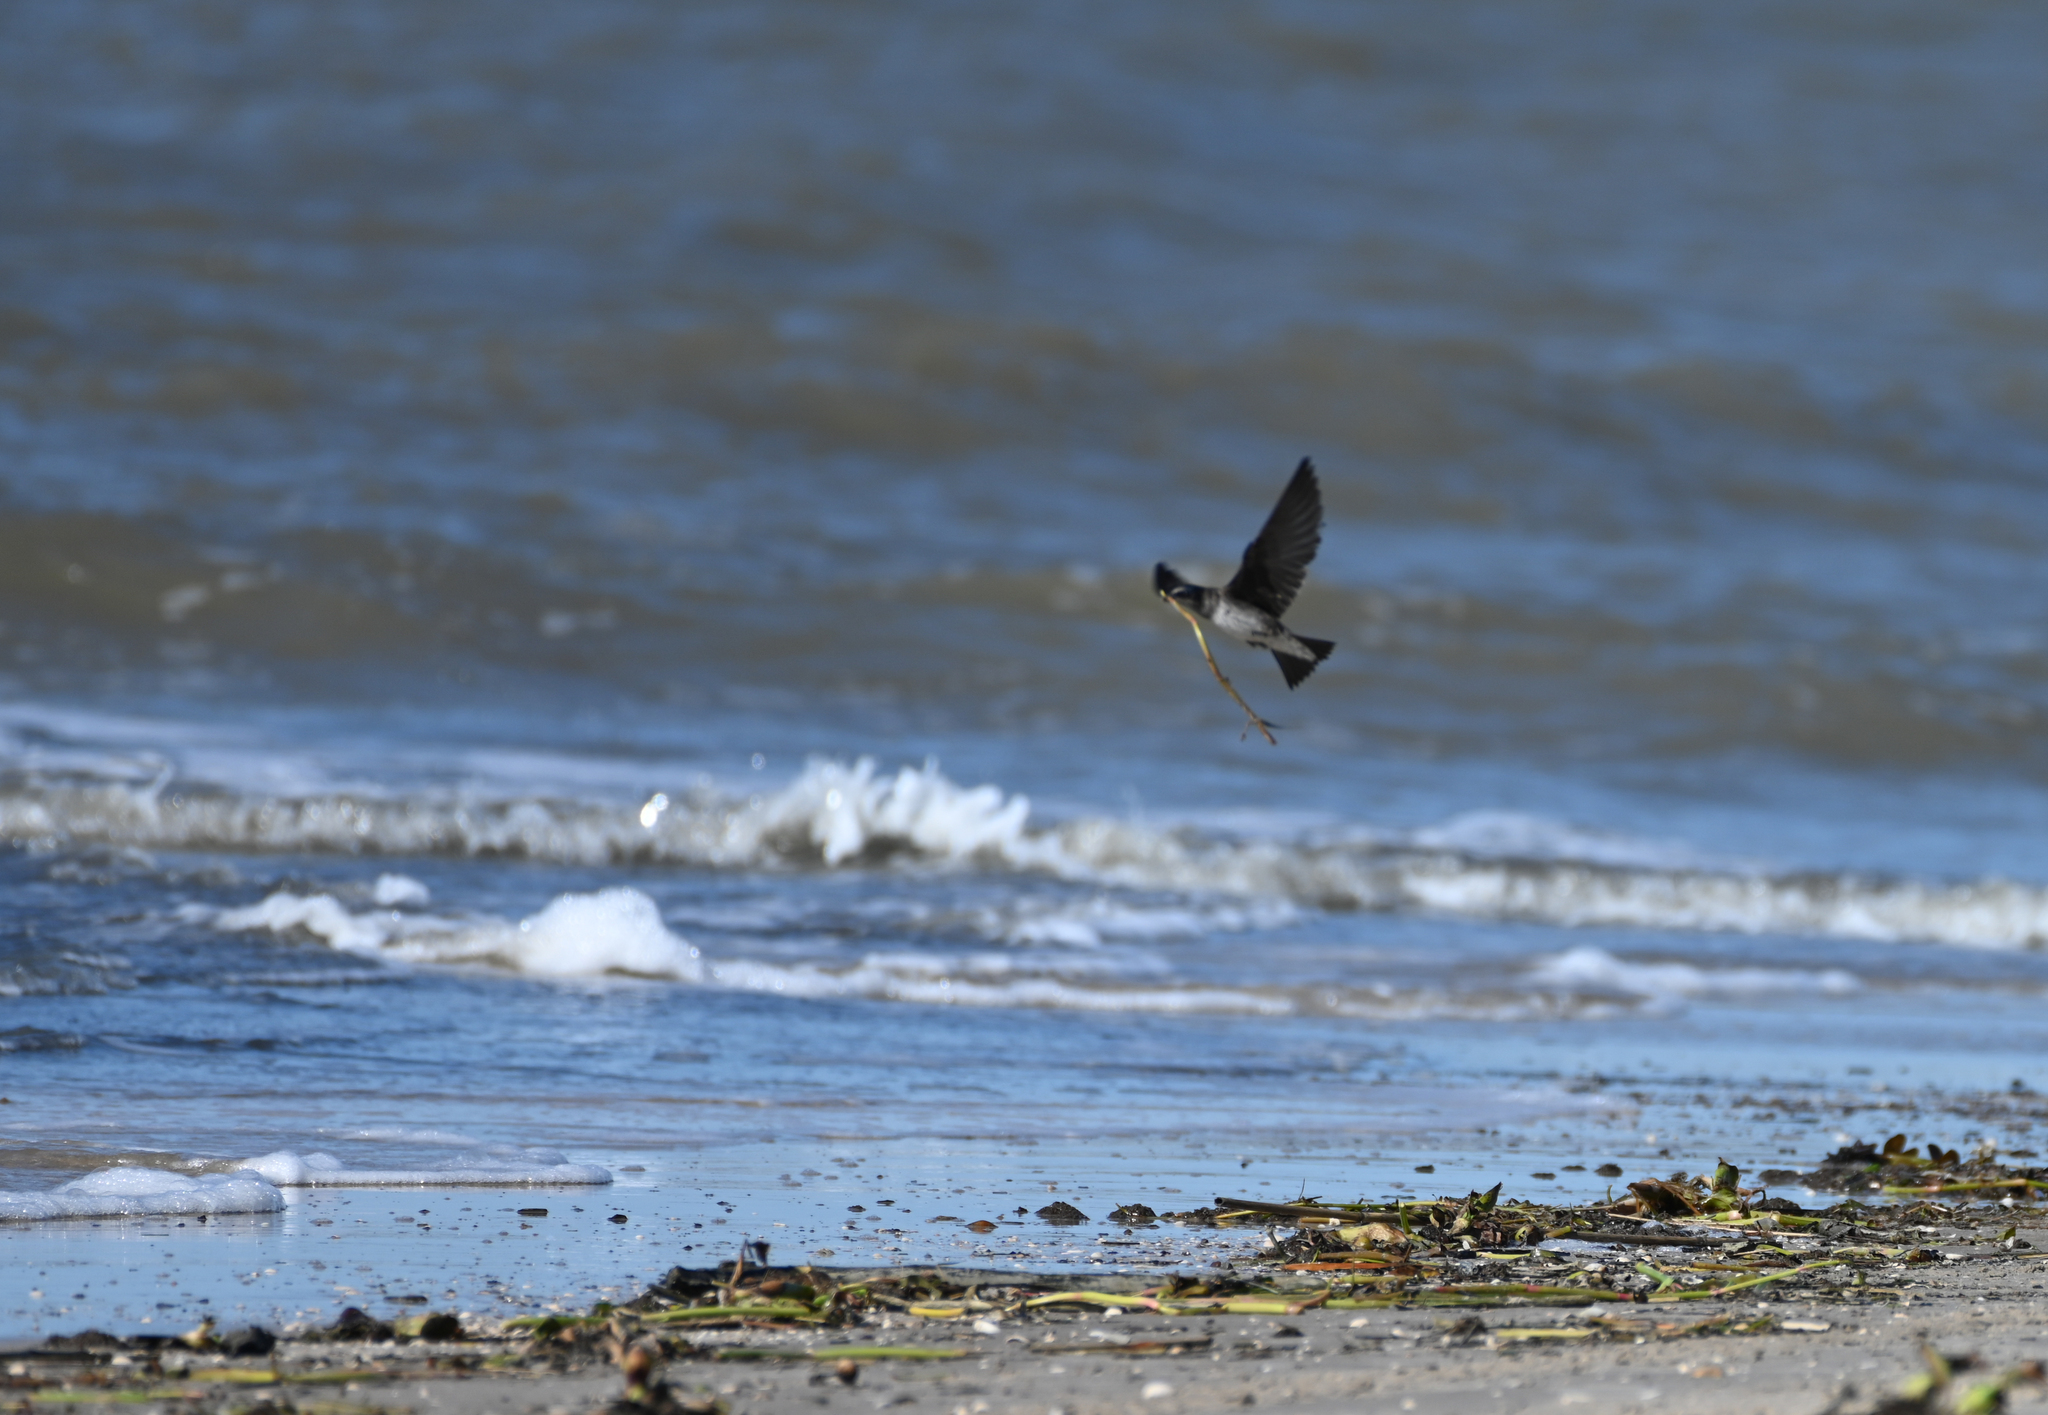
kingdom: Animalia
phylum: Chordata
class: Aves
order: Passeriformes
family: Hirundinidae
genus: Progne
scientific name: Progne subis
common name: Purple martin
